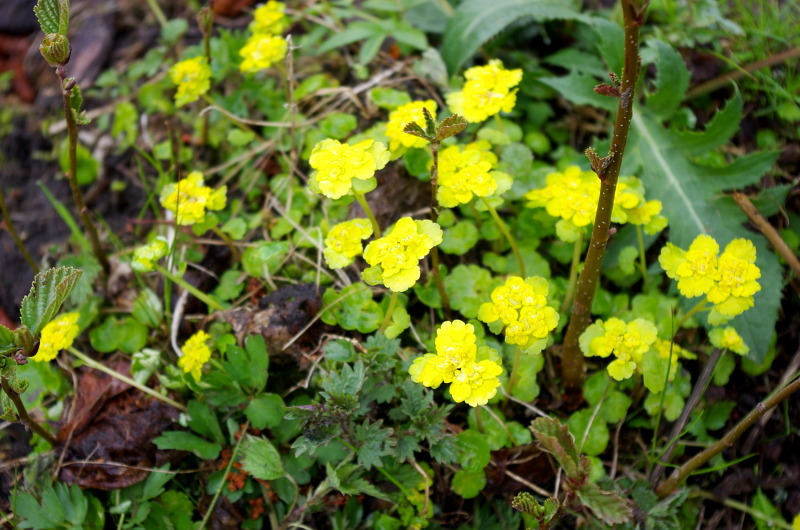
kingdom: Plantae
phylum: Tracheophyta
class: Magnoliopsida
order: Saxifragales
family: Saxifragaceae
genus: Chrysosplenium
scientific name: Chrysosplenium alternifolium
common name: Alternate-leaved golden-saxifrage
